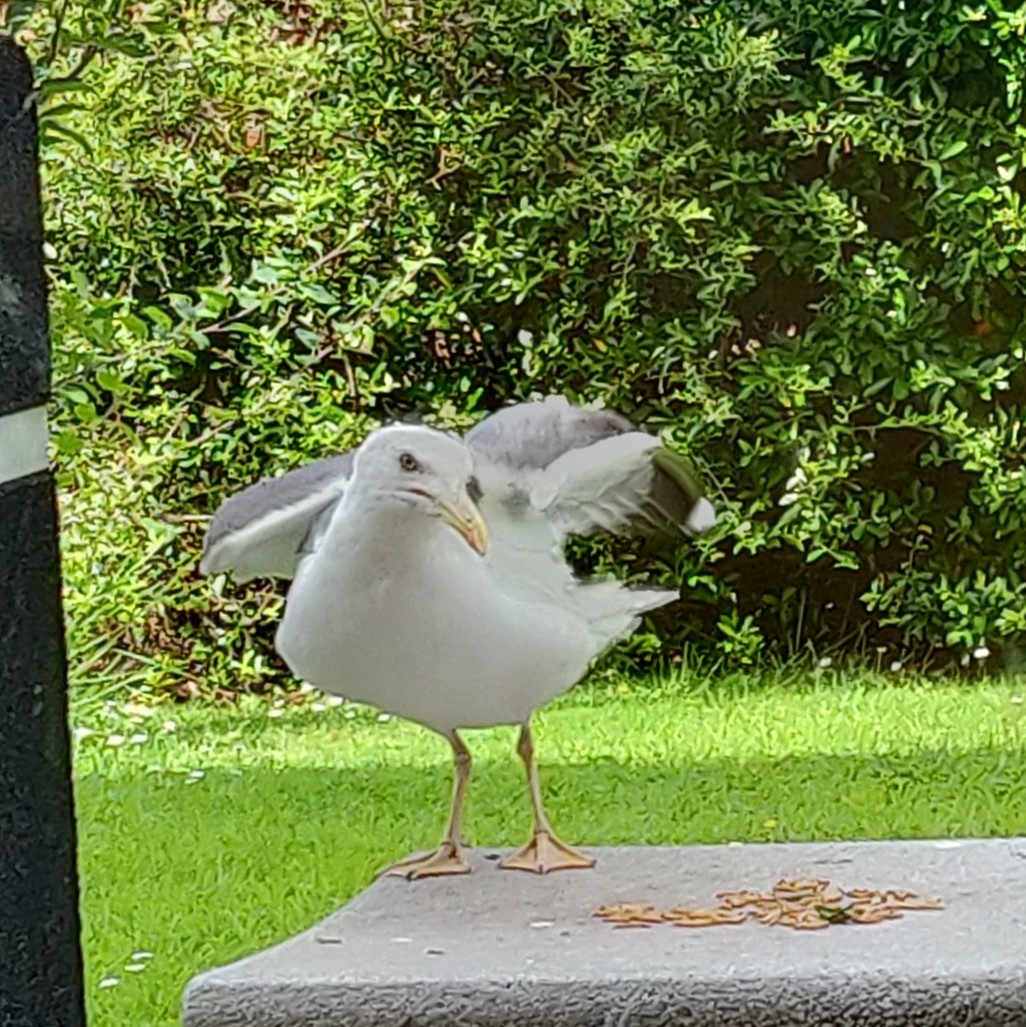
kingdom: Animalia
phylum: Chordata
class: Aves
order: Charadriiformes
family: Laridae
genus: Larus
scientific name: Larus argentatus
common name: Herring gull
